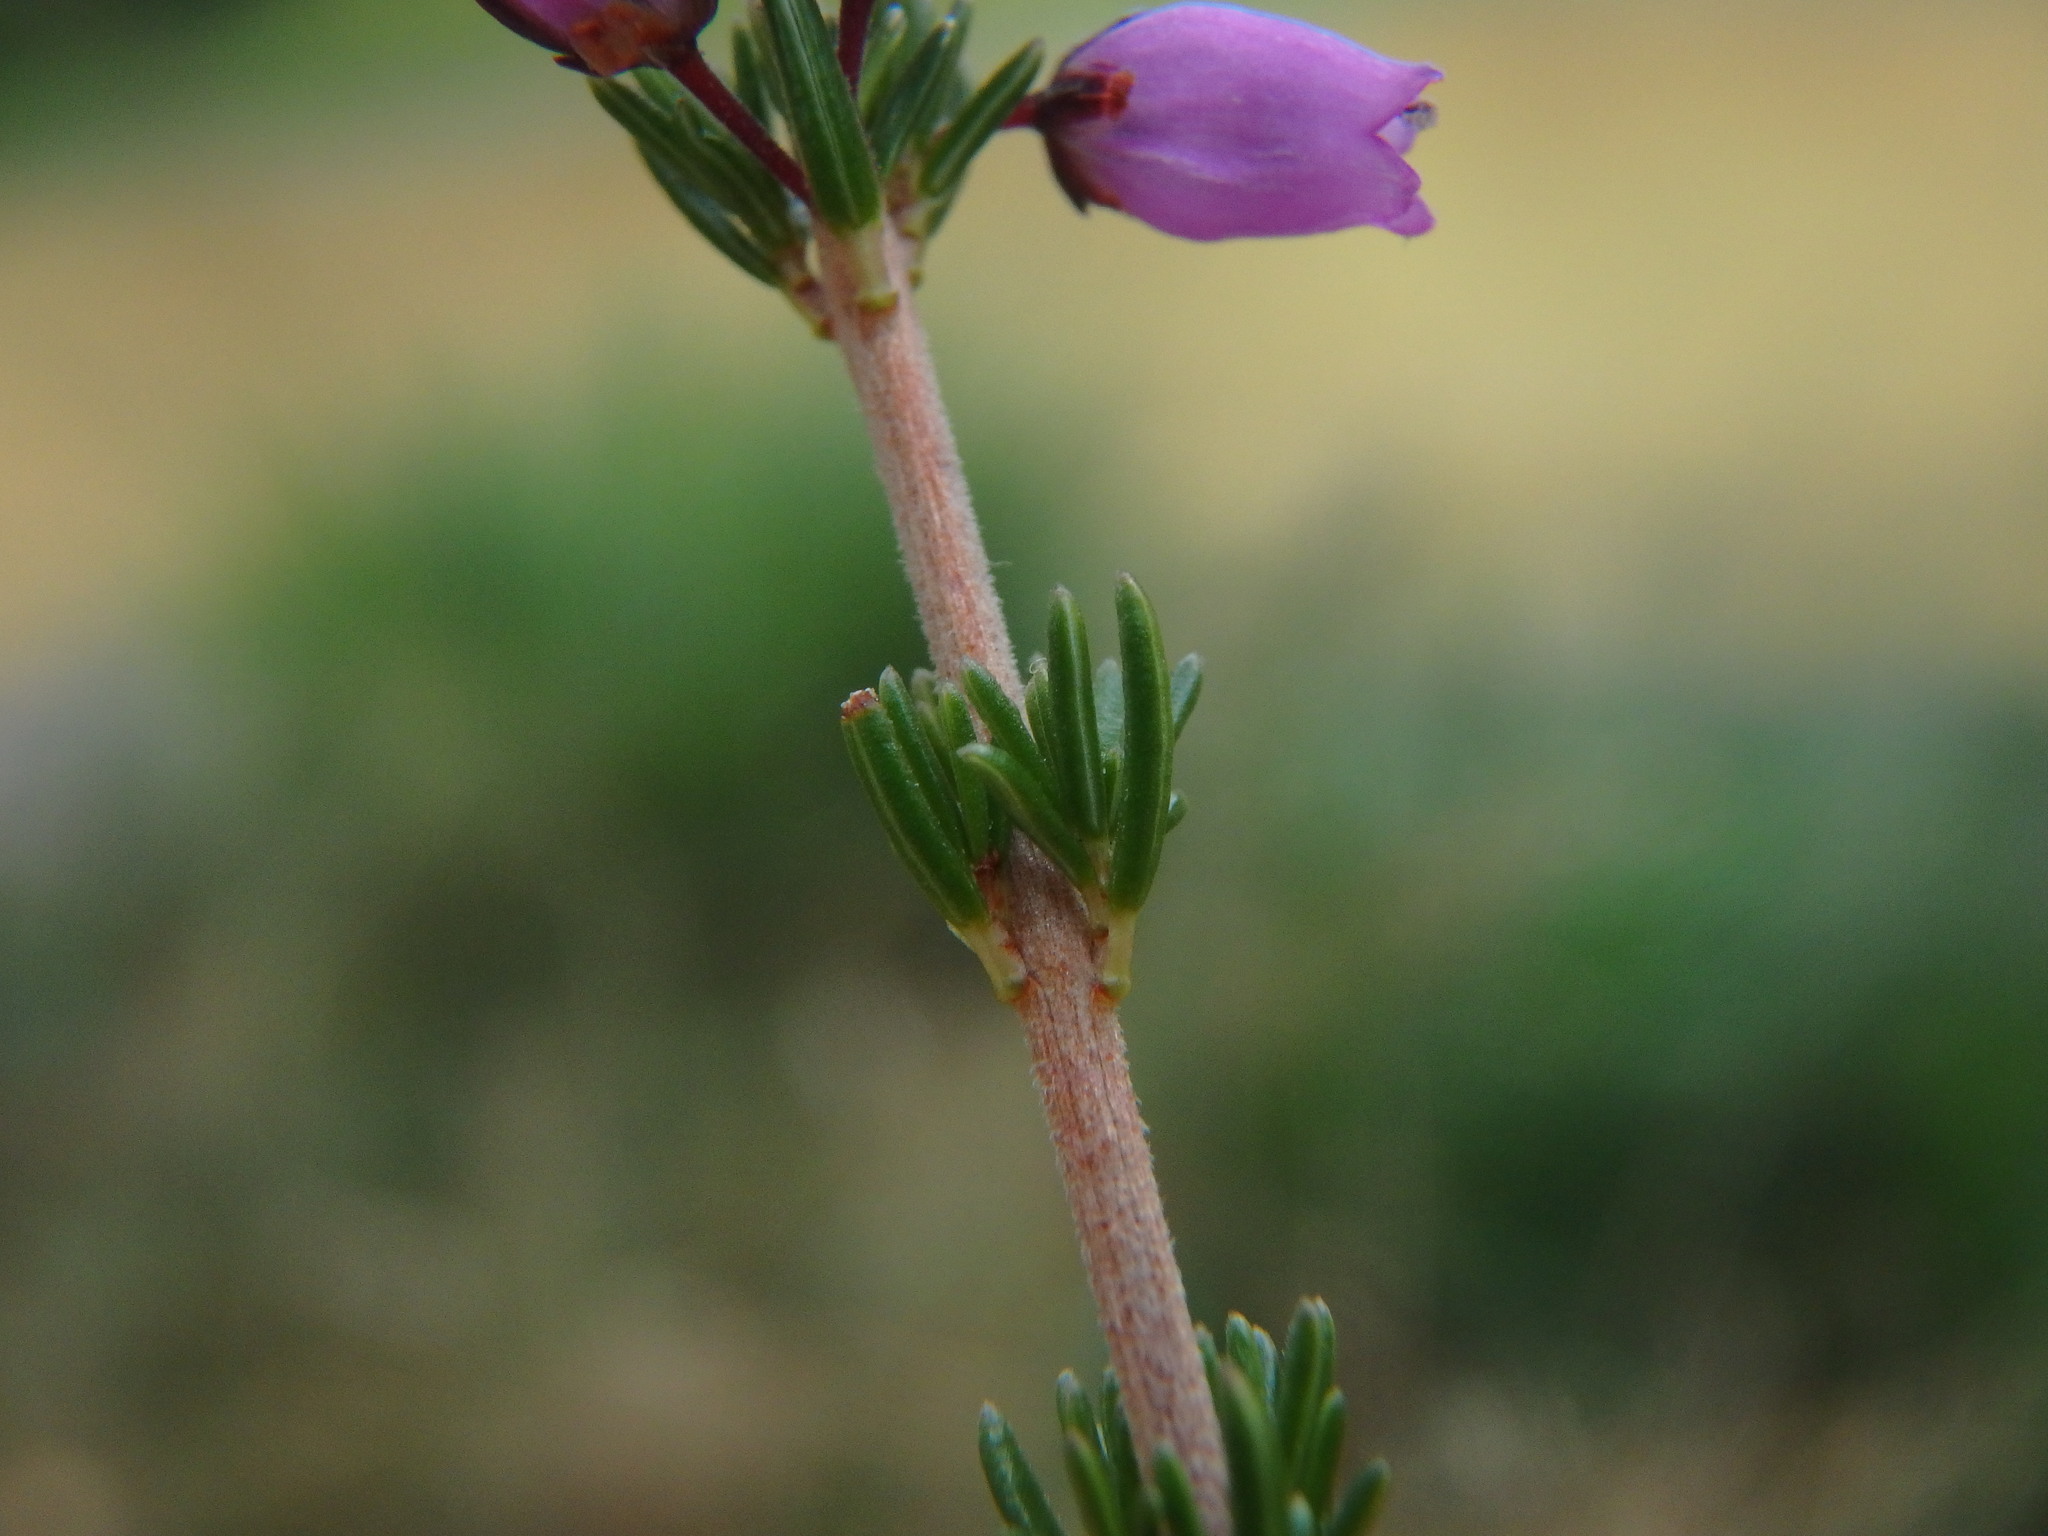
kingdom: Plantae
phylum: Tracheophyta
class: Magnoliopsida
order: Ericales
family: Ericaceae
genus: Erica
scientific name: Erica cinerea
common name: Bell heather
